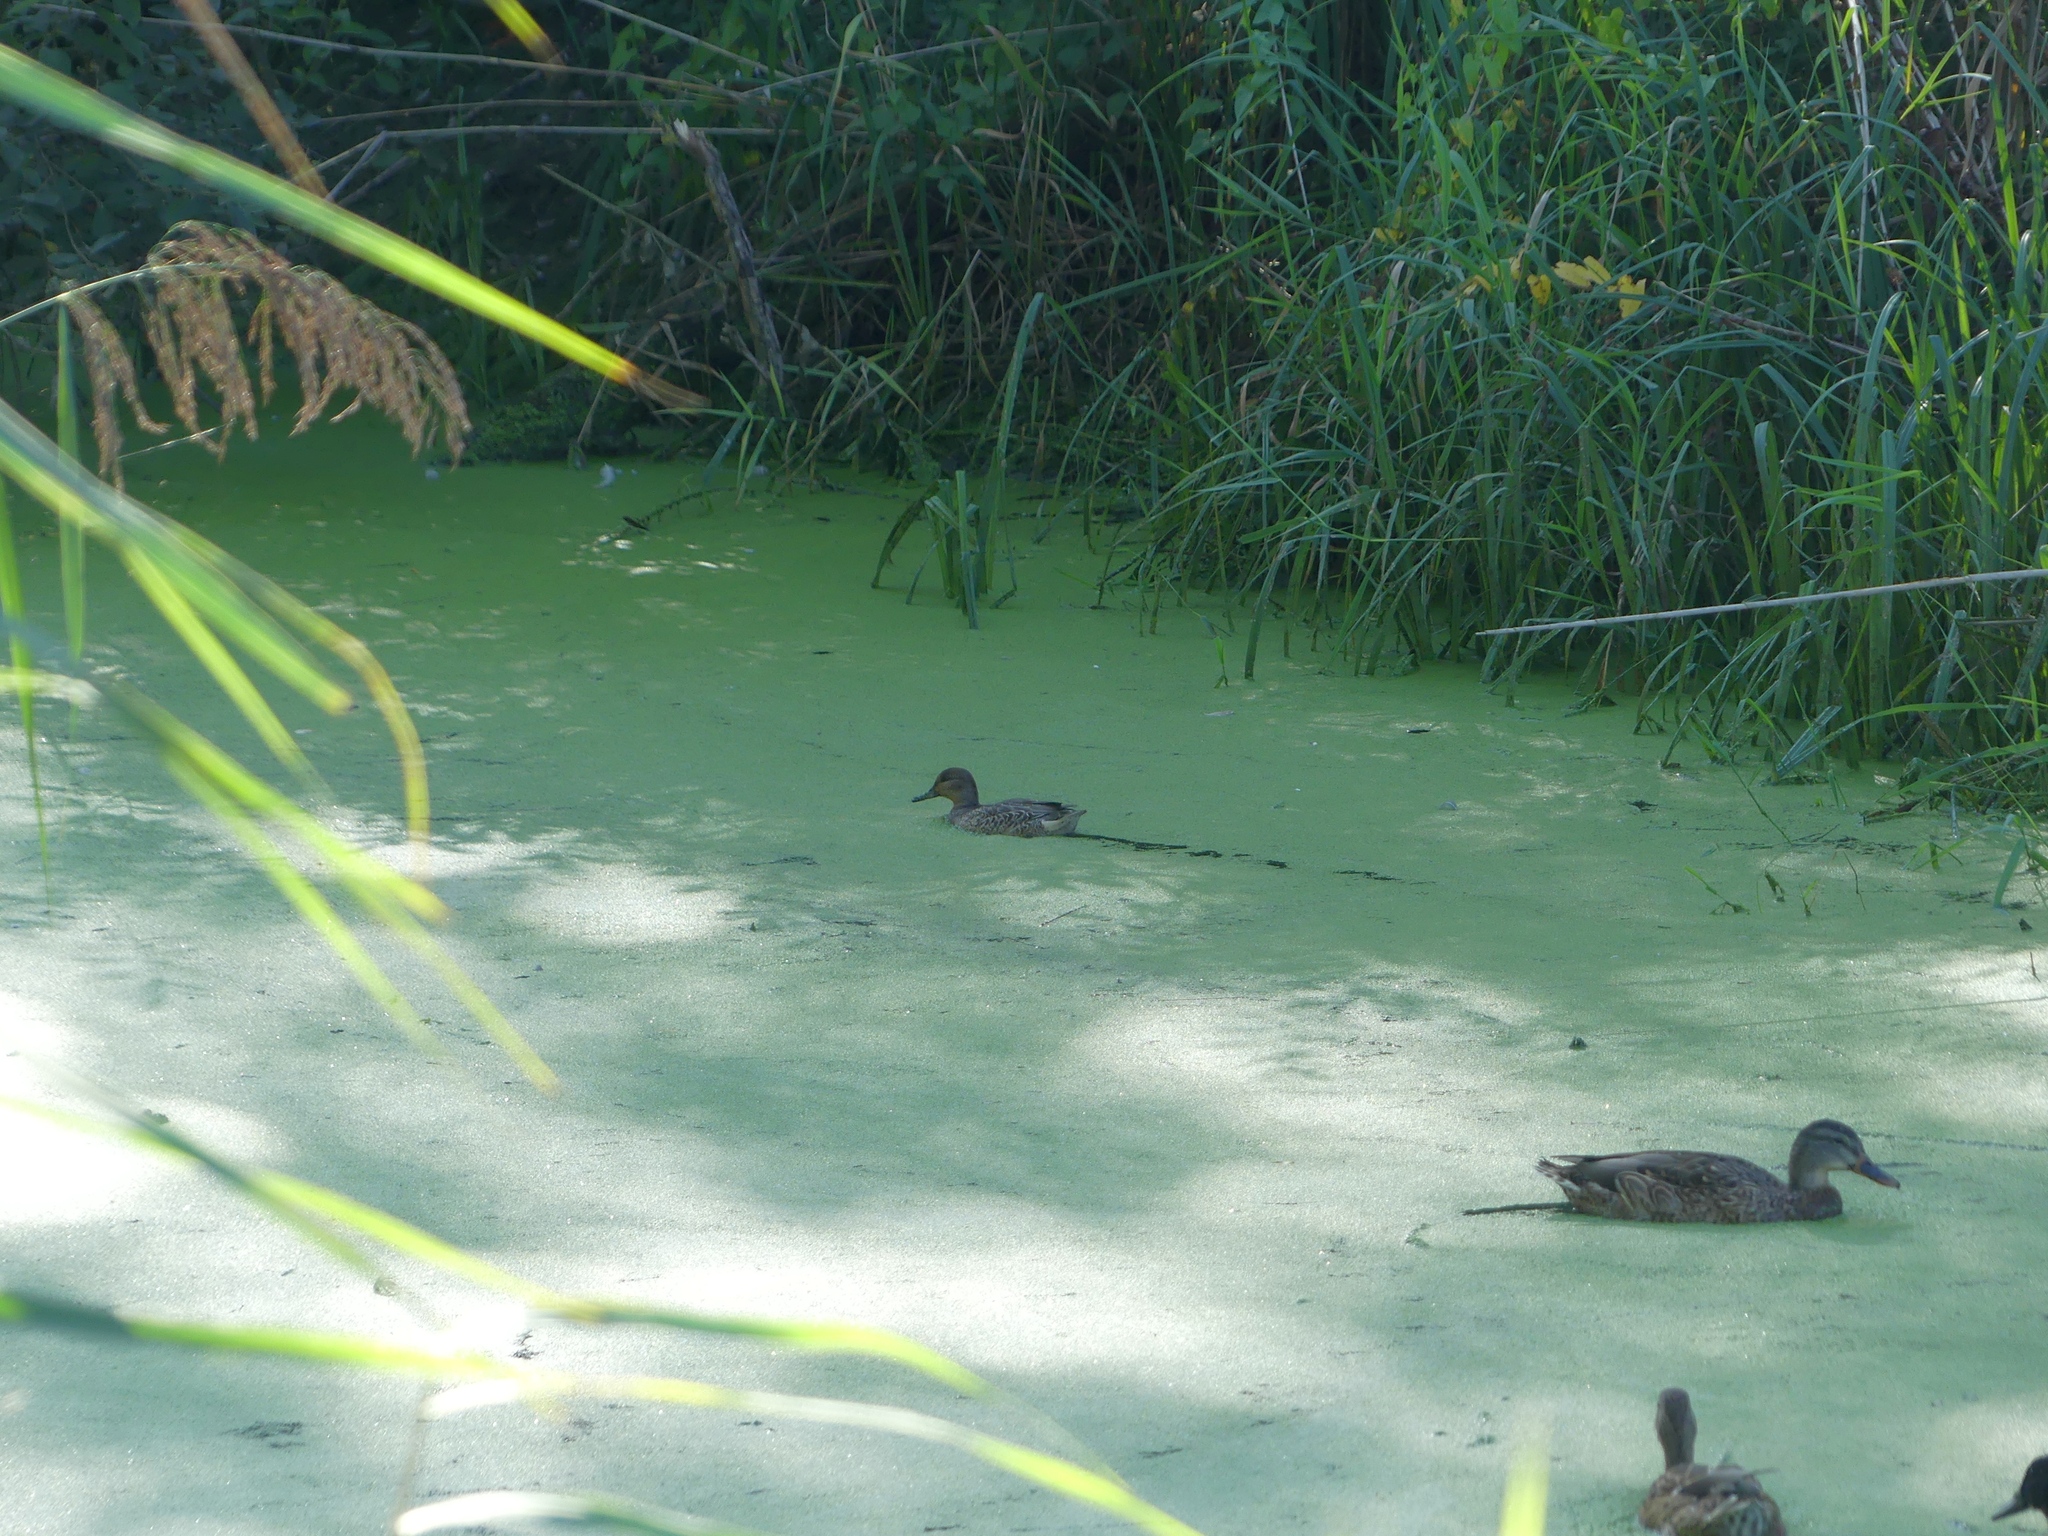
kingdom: Animalia
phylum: Chordata
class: Aves
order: Anseriformes
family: Anatidae
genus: Anas
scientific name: Anas crecca
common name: Eurasian teal
